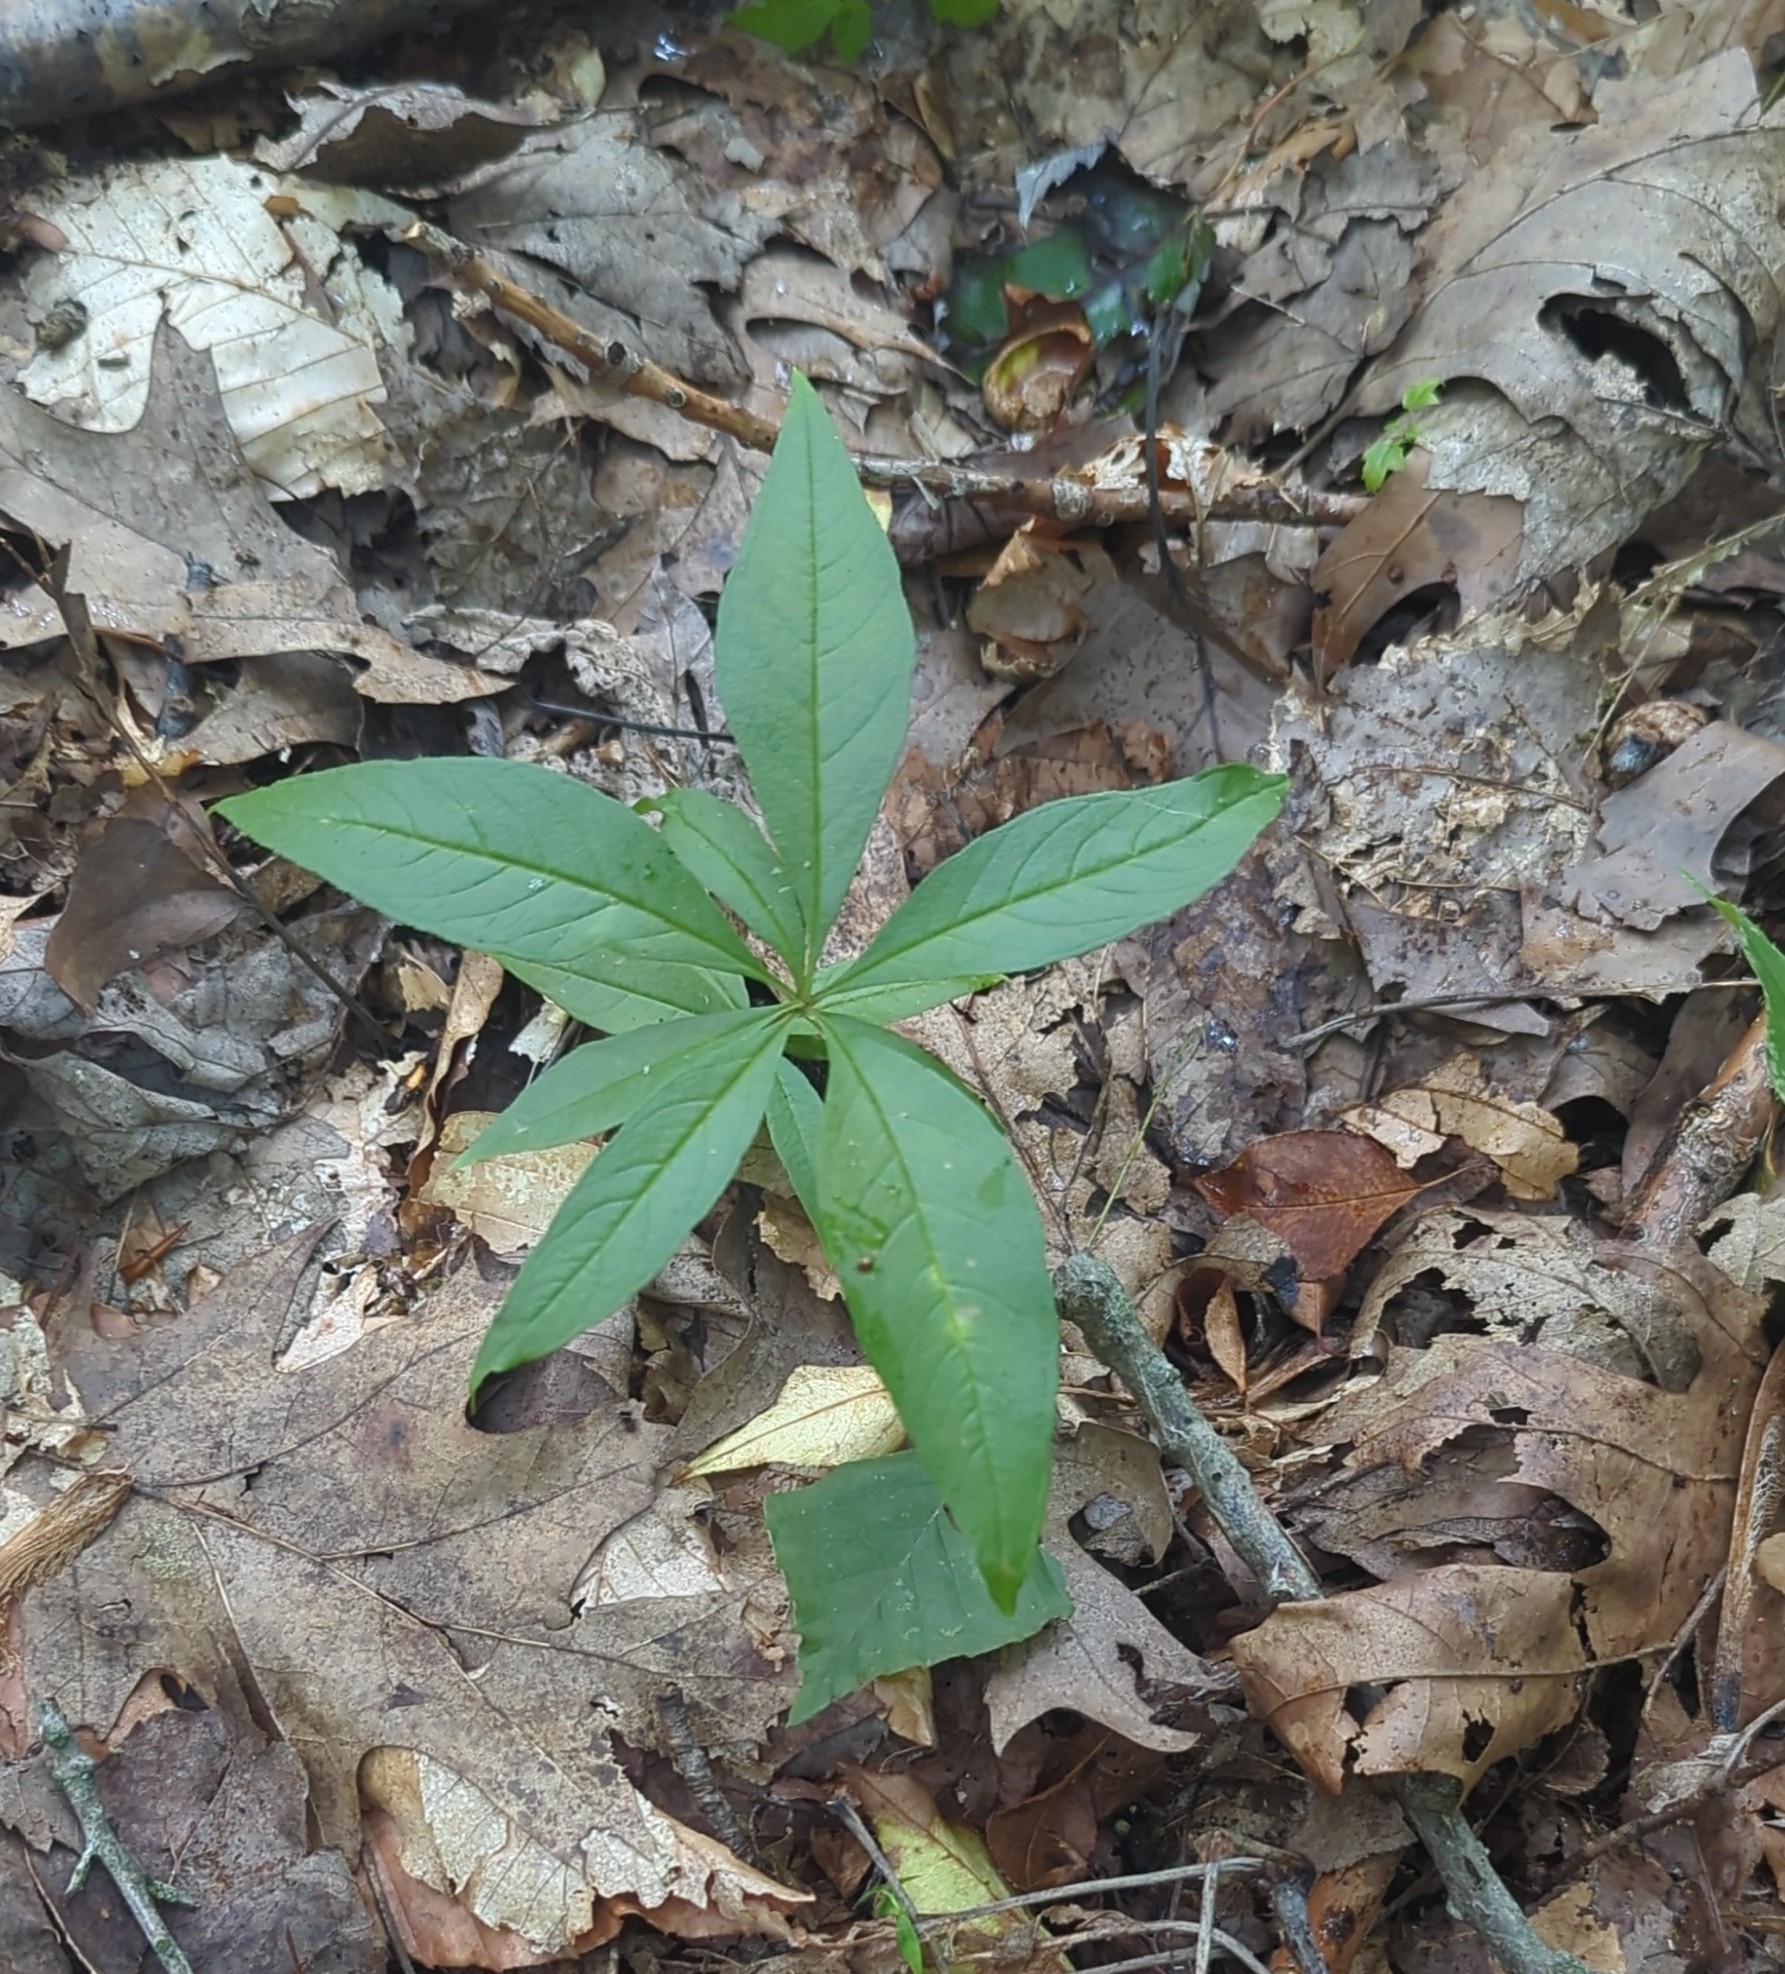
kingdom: Plantae
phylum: Tracheophyta
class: Magnoliopsida
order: Ericales
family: Primulaceae
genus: Lysimachia
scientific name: Lysimachia borealis
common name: American starflower
